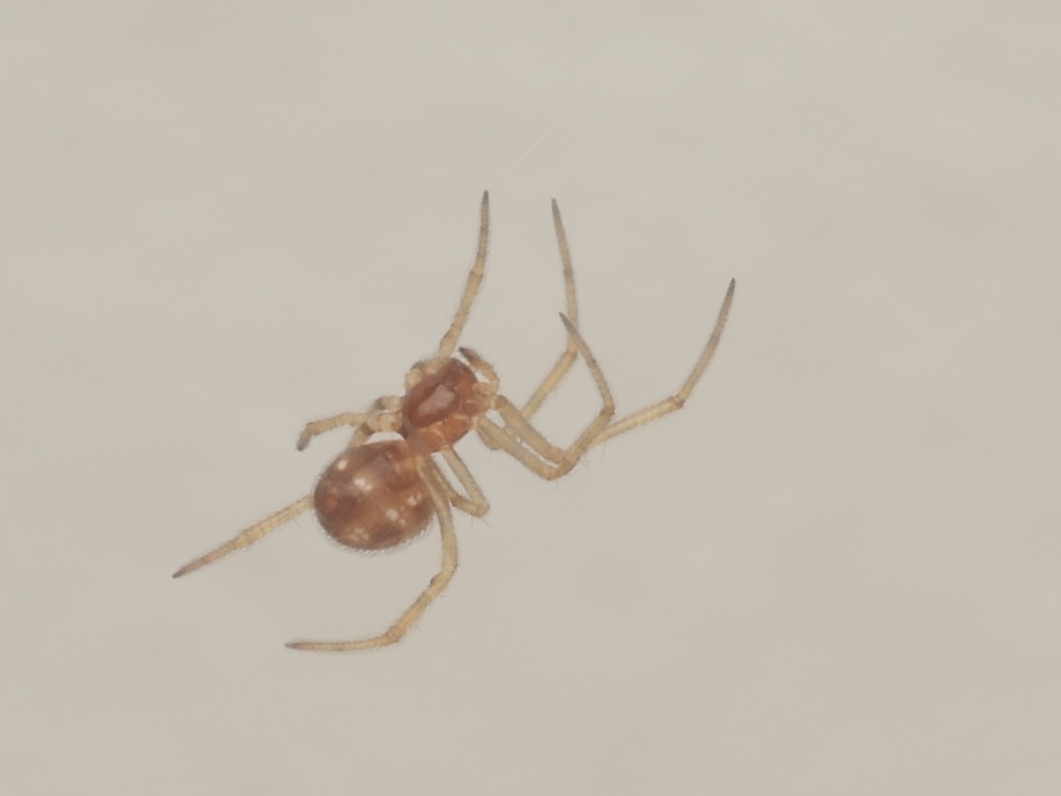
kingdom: Animalia
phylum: Arthropoda
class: Arachnida
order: Araneae
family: Theridiidae
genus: Steatoda
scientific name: Steatoda triangulosa
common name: Triangulate bud spider
